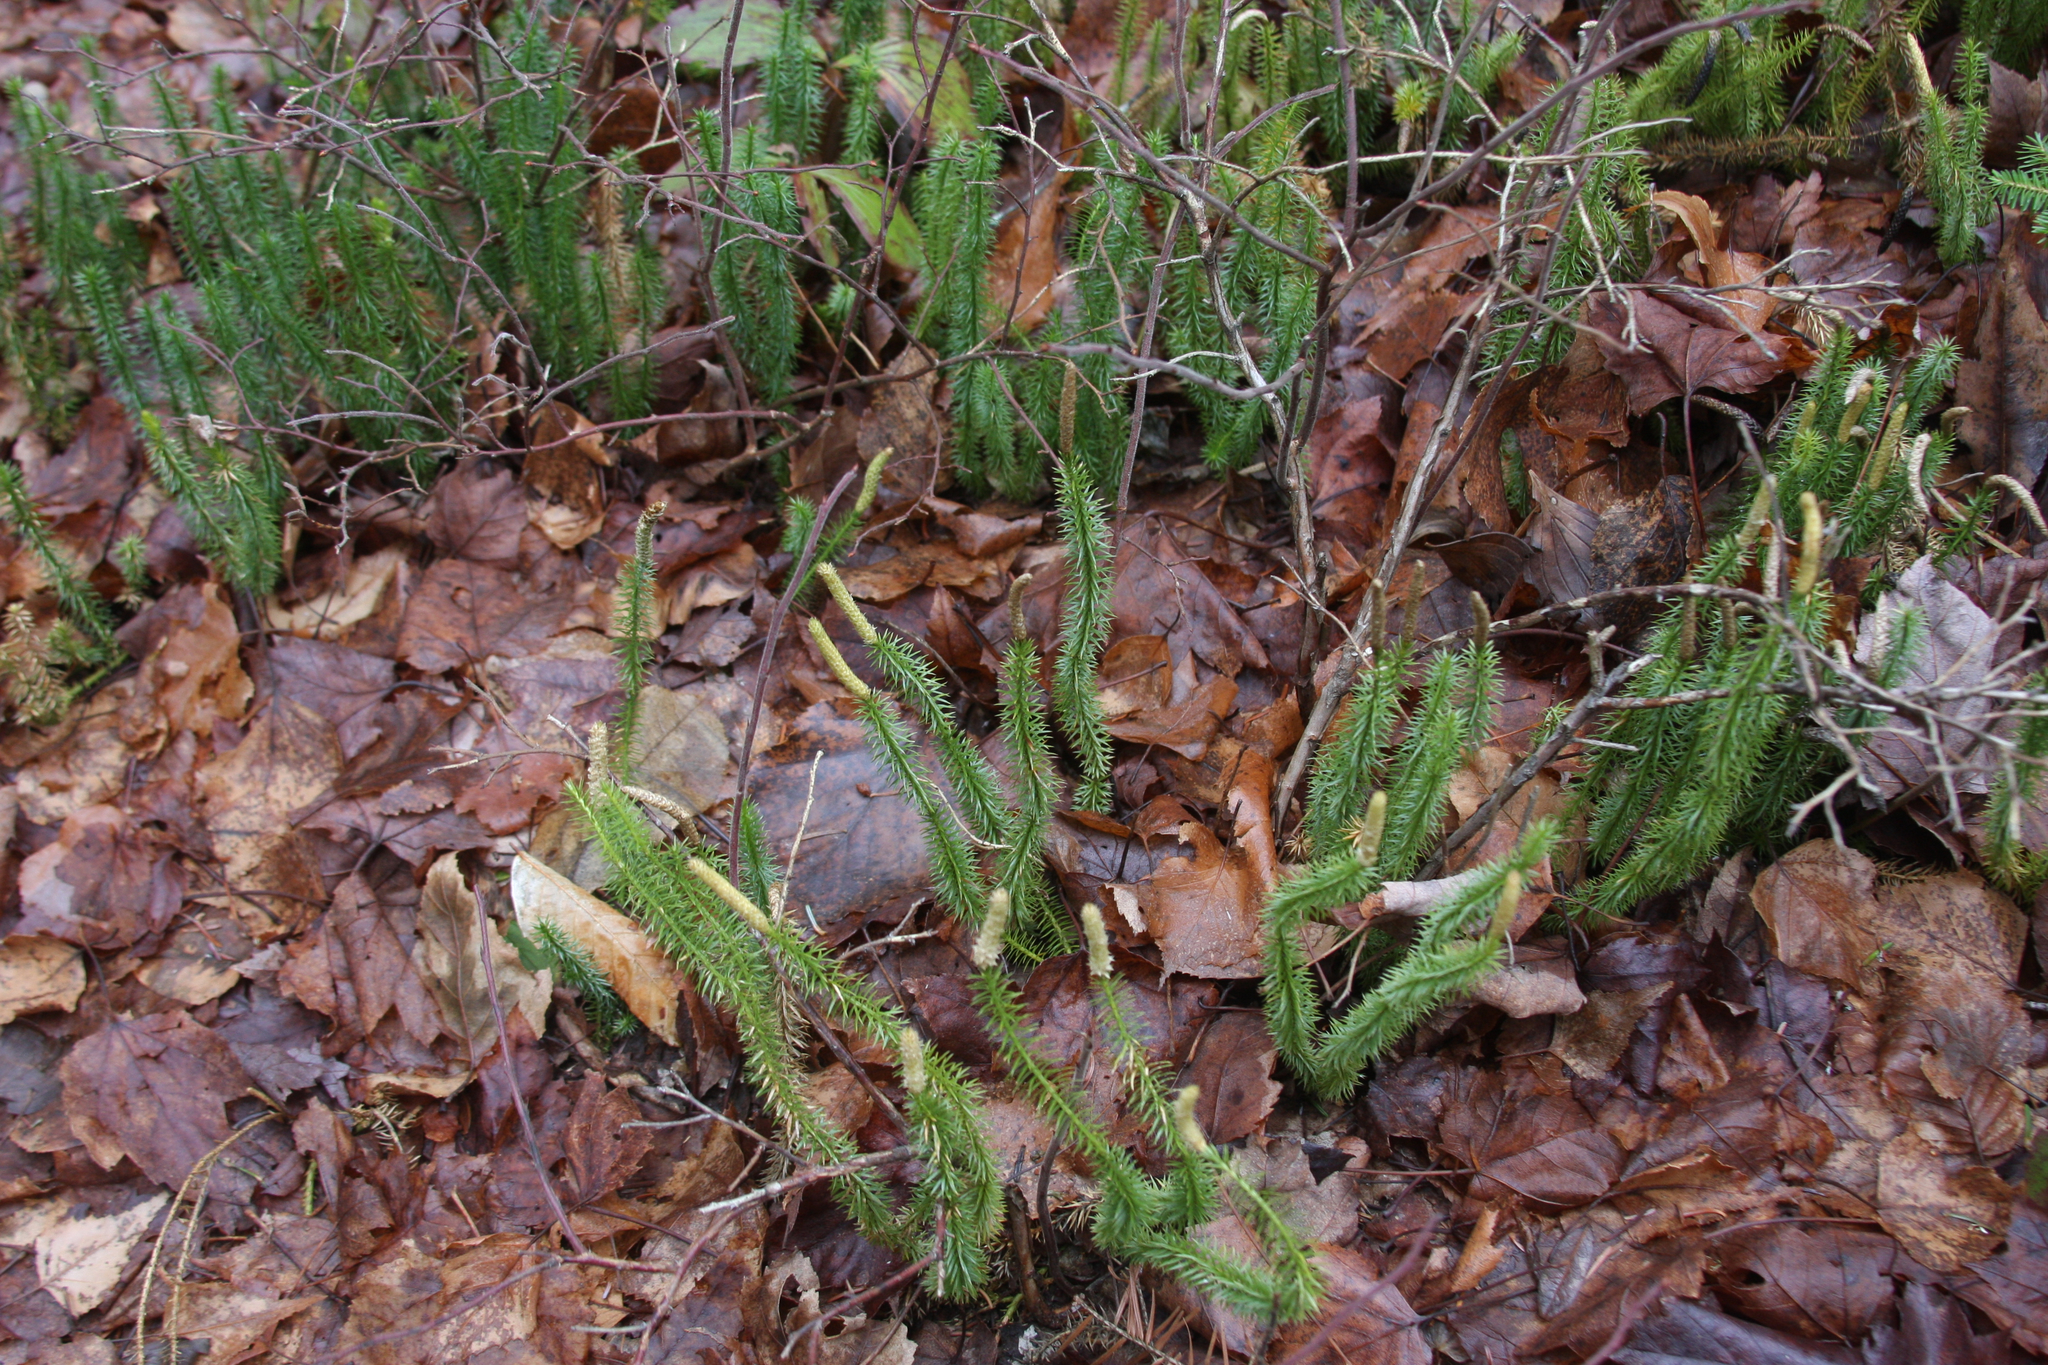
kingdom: Plantae
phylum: Tracheophyta
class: Lycopodiopsida
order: Lycopodiales
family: Lycopodiaceae
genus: Spinulum
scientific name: Spinulum annotinum
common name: Interrupted club-moss
